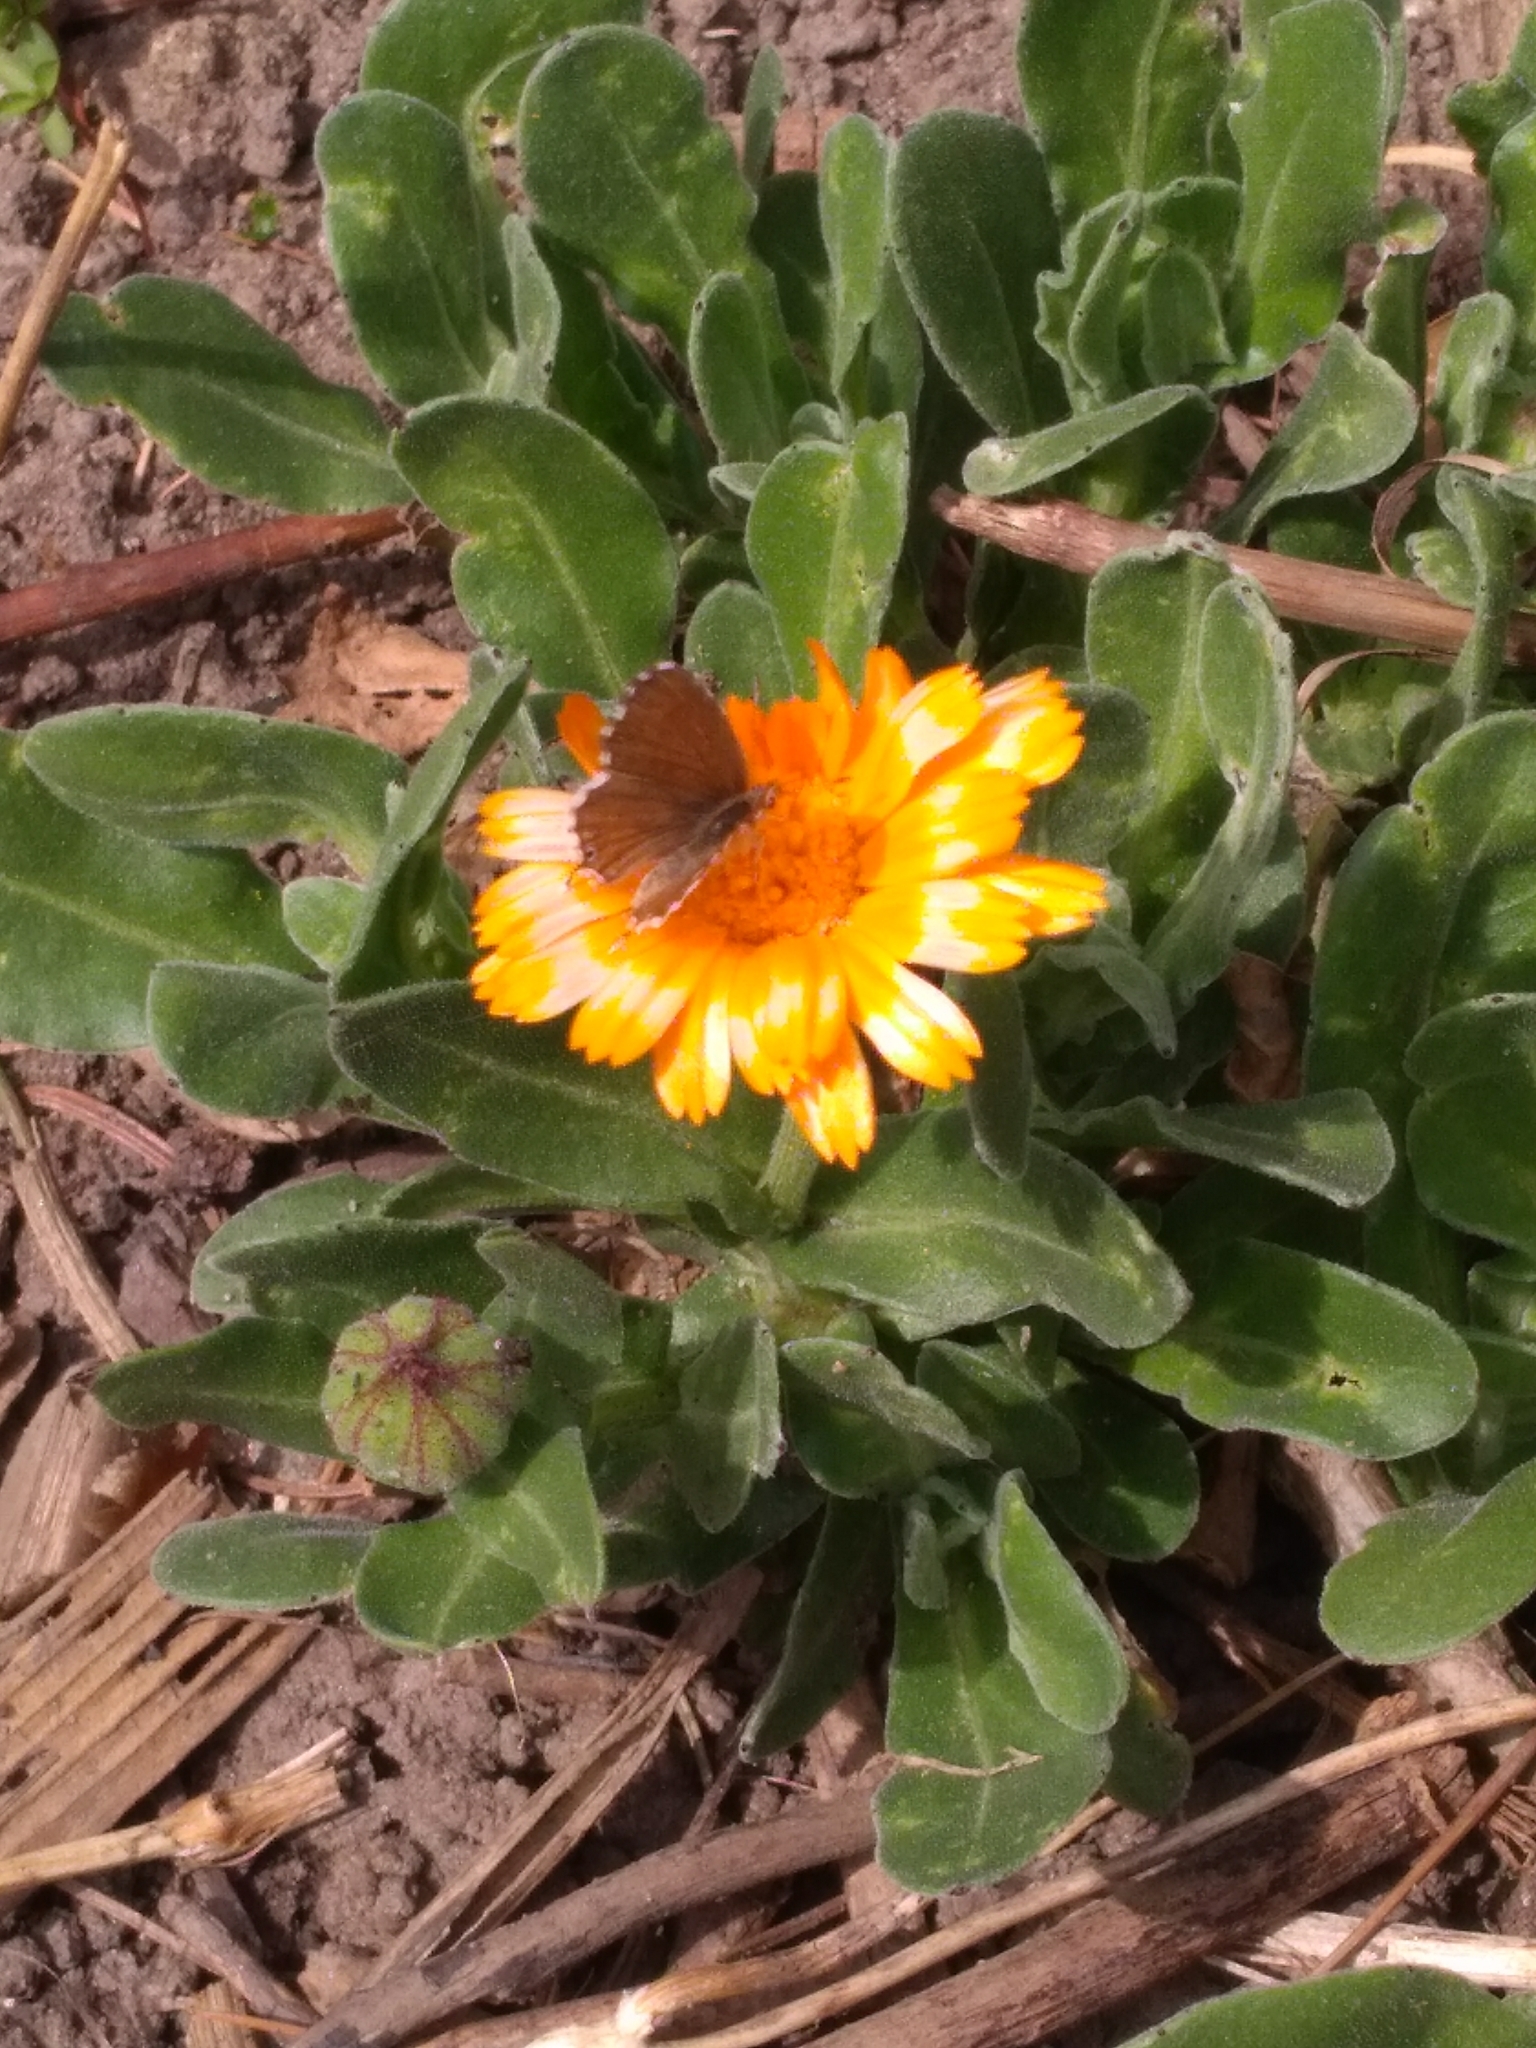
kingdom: Animalia
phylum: Arthropoda
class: Insecta
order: Lepidoptera
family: Lycaenidae
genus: Cacyreus
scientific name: Cacyreus marshalli
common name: Geranium bronze
